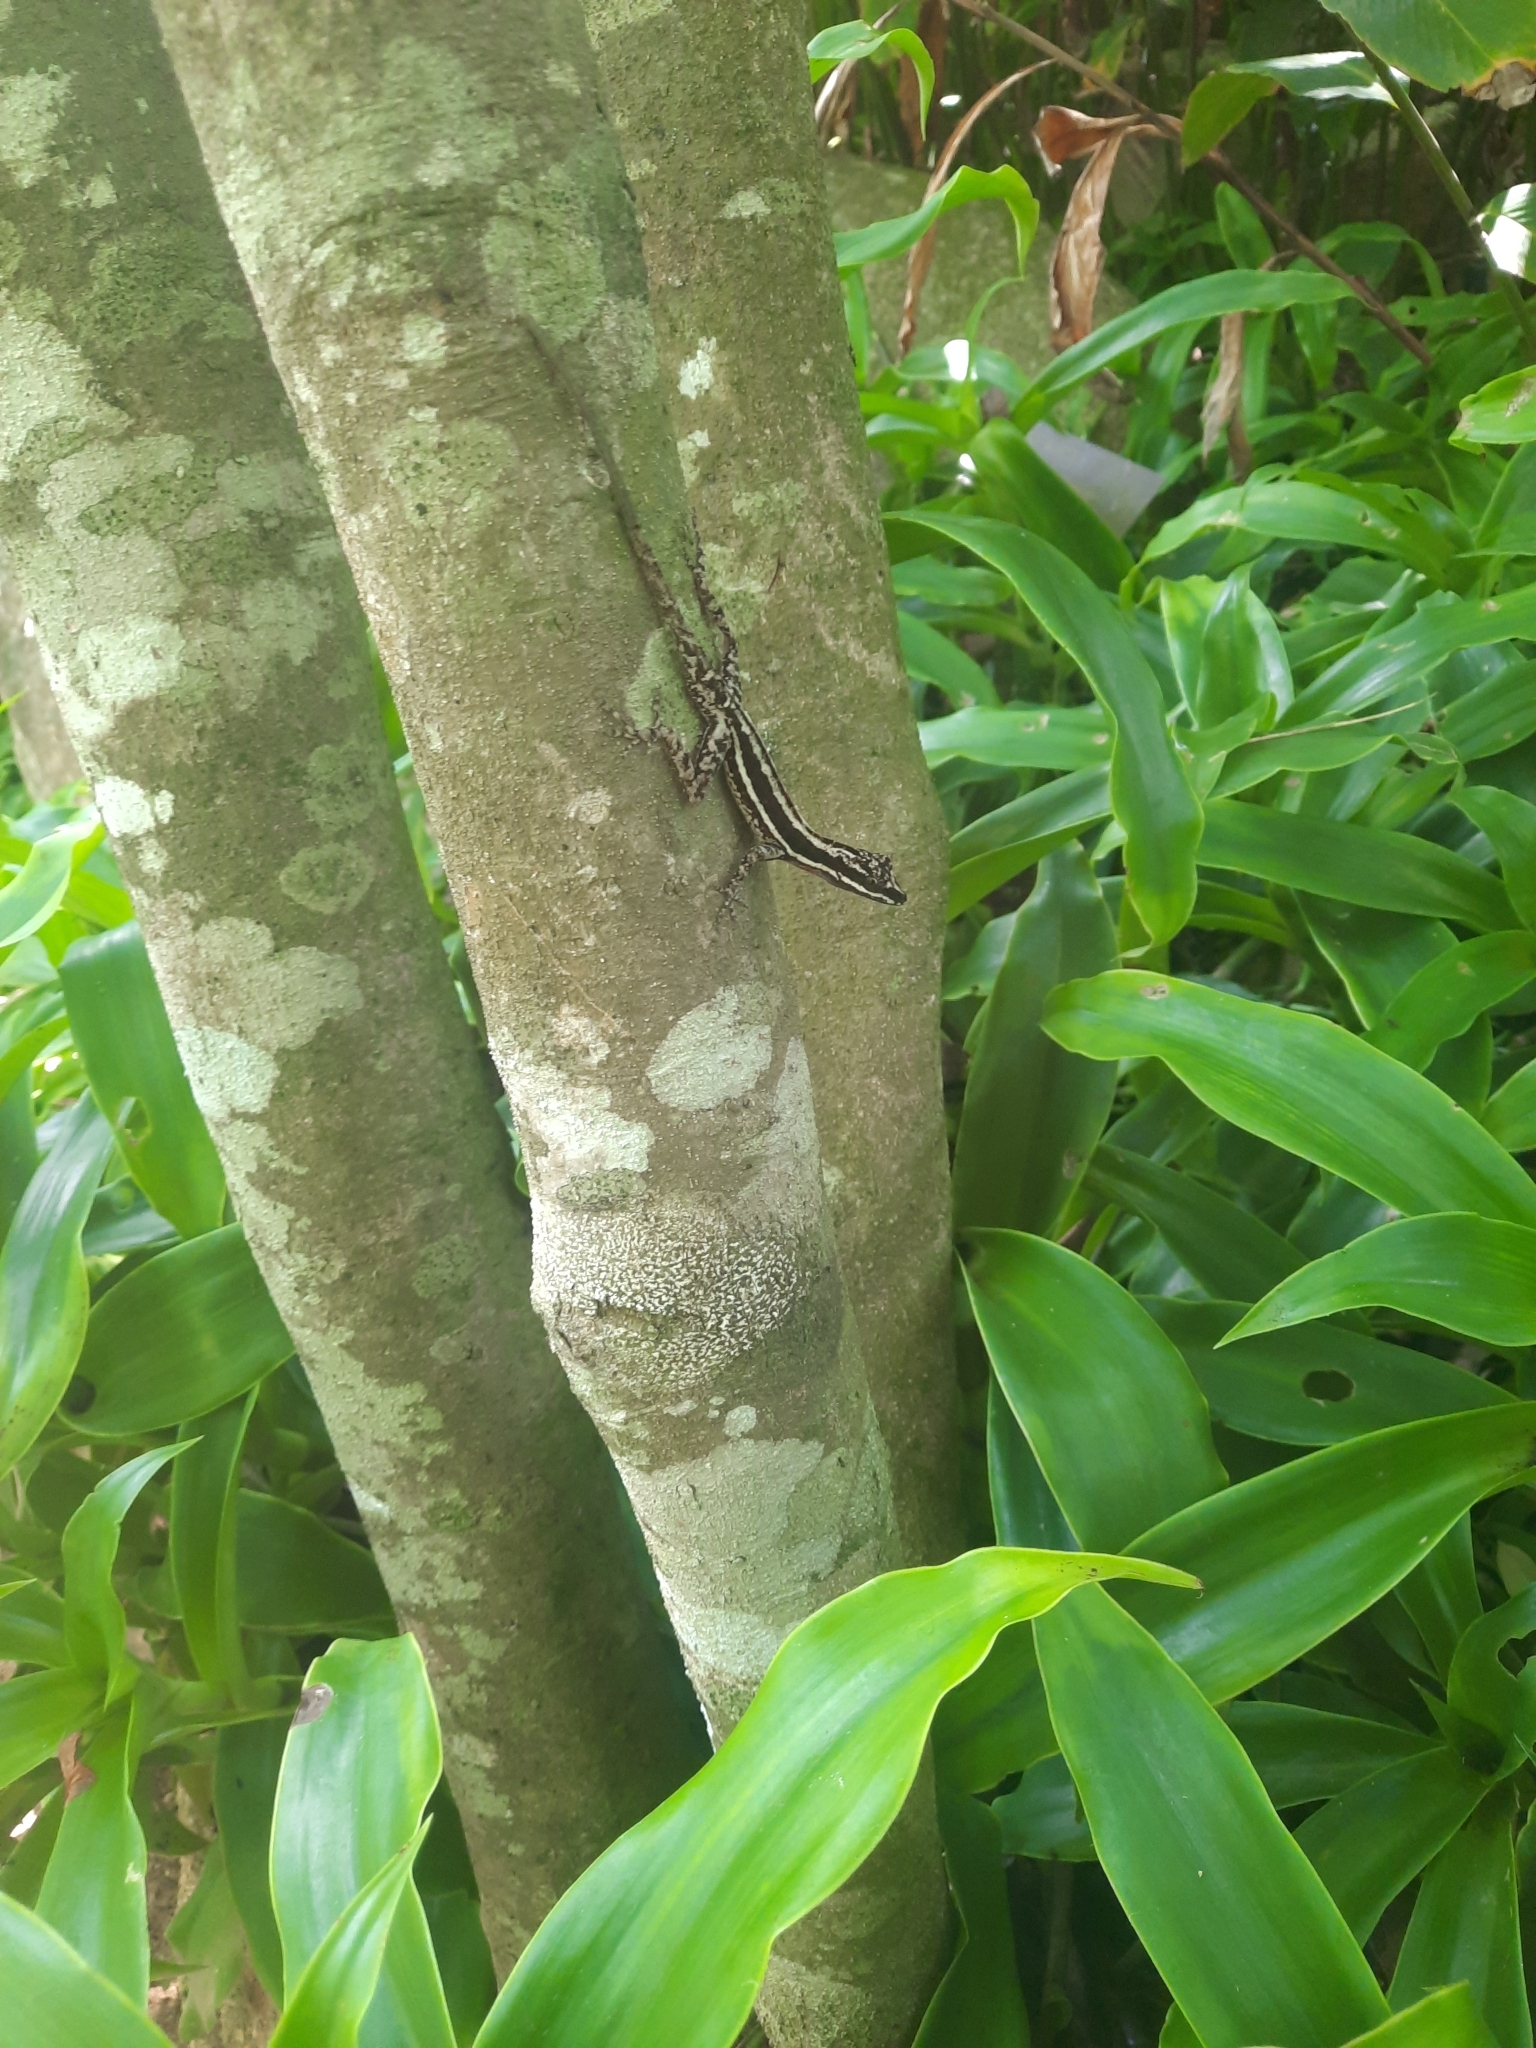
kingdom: Animalia
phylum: Chordata
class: Squamata
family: Dactyloidae
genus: Anolis
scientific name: Anolis taylori
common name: Taylor's anole
